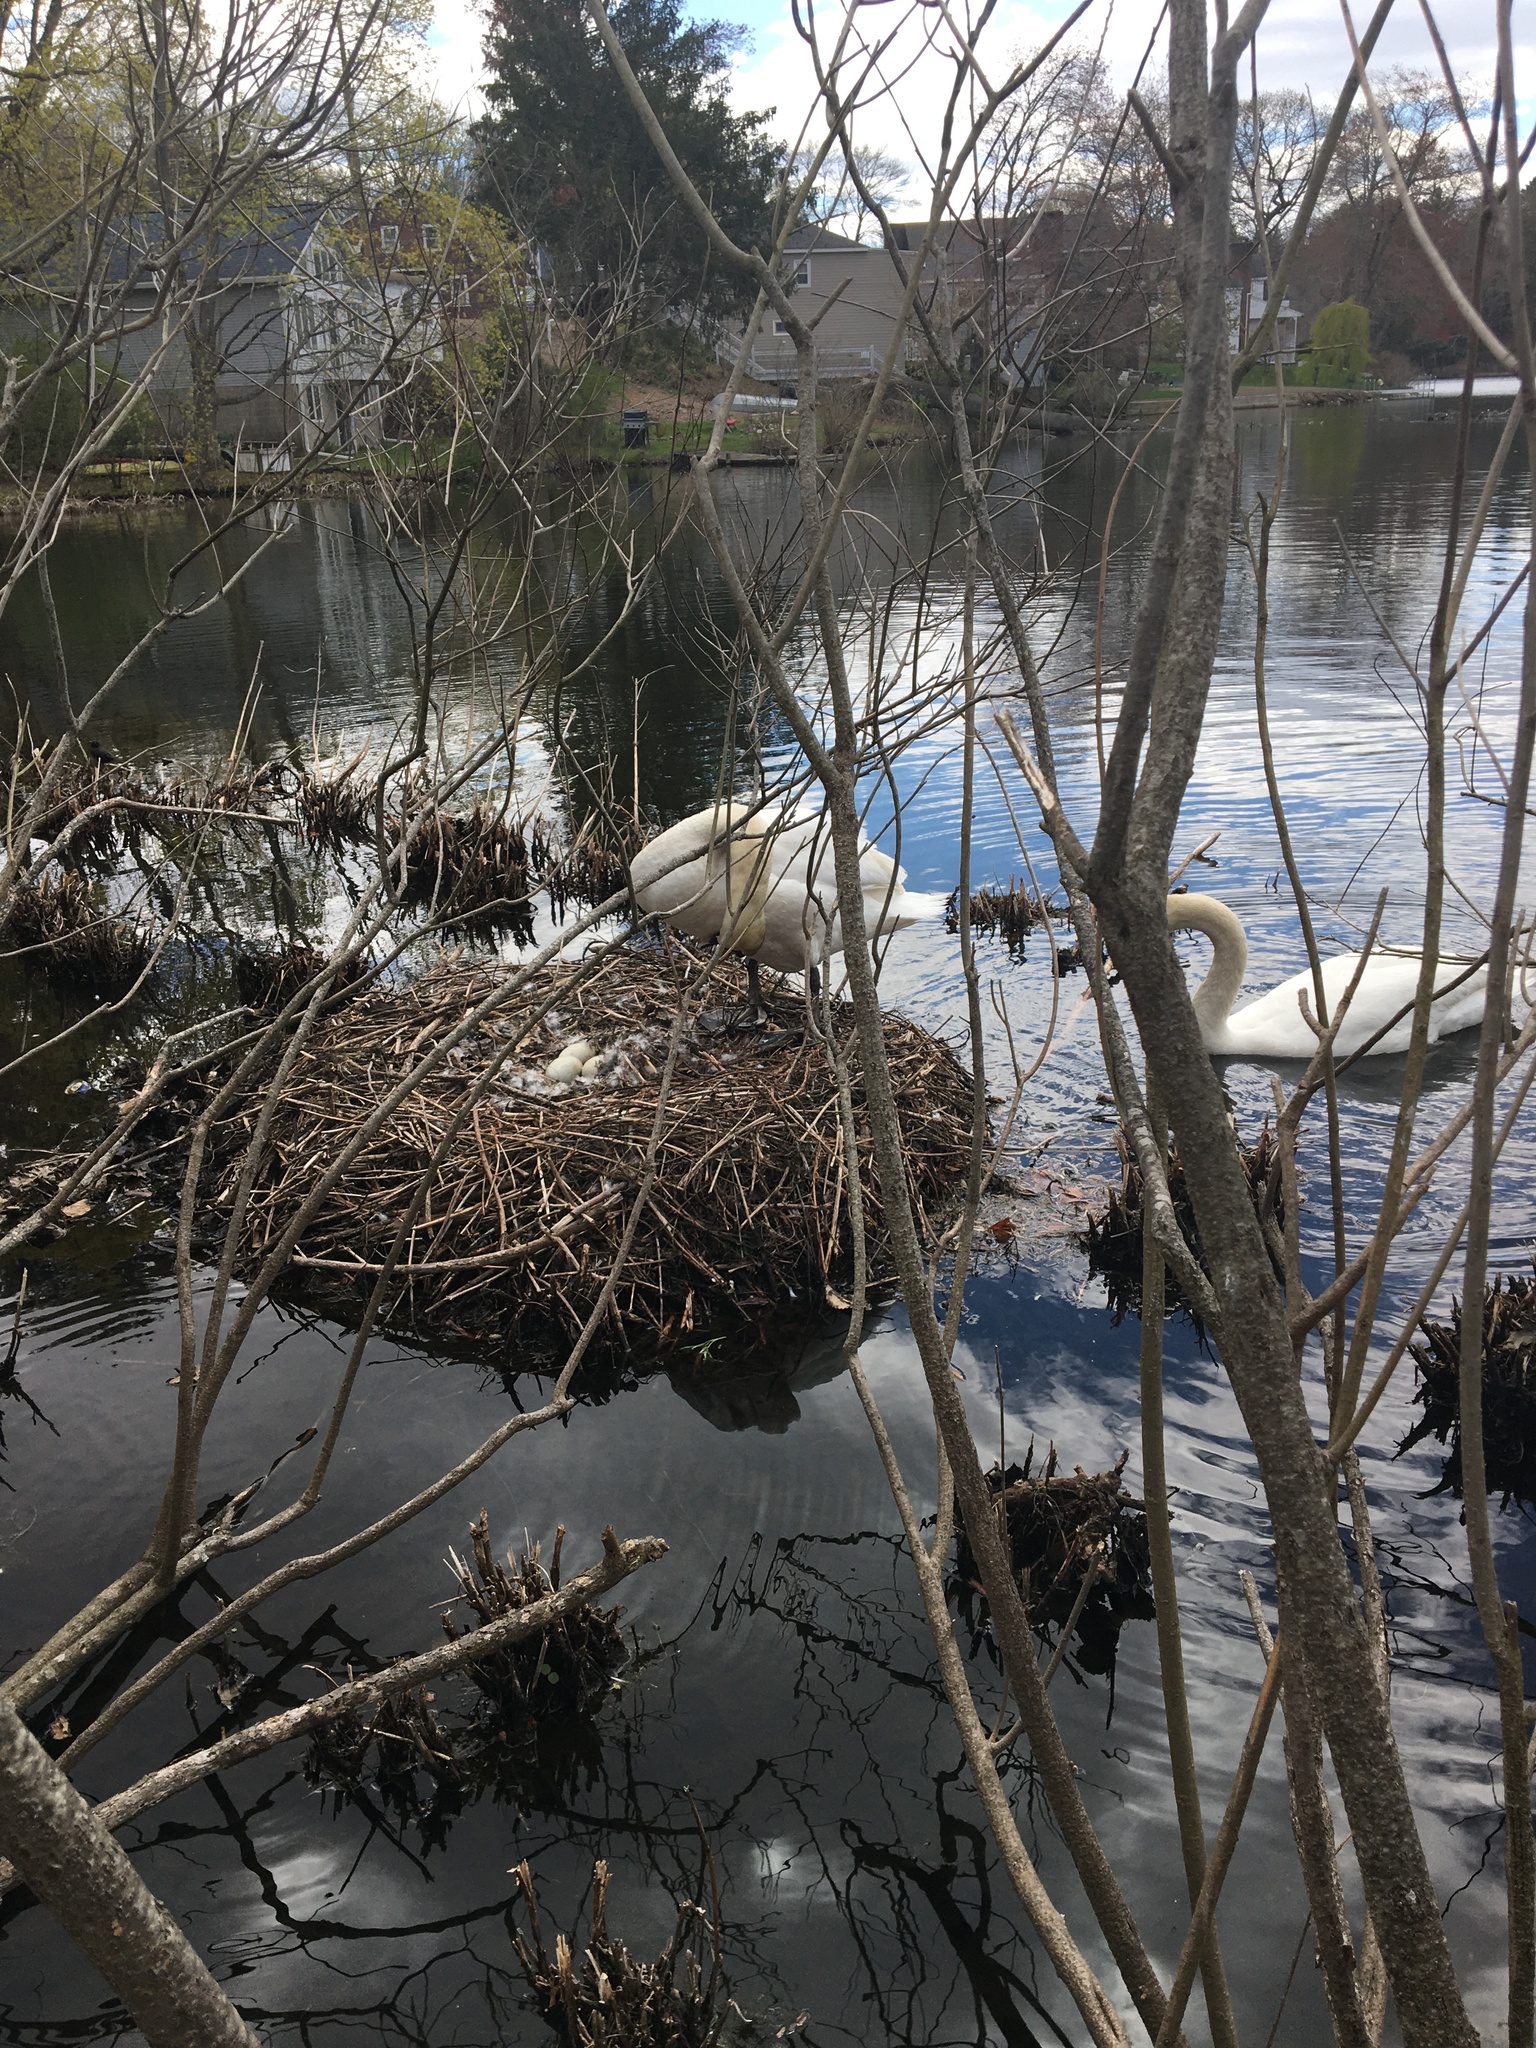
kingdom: Animalia
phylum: Chordata
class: Aves
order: Anseriformes
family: Anatidae
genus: Cygnus
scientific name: Cygnus olor
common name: Mute swan
